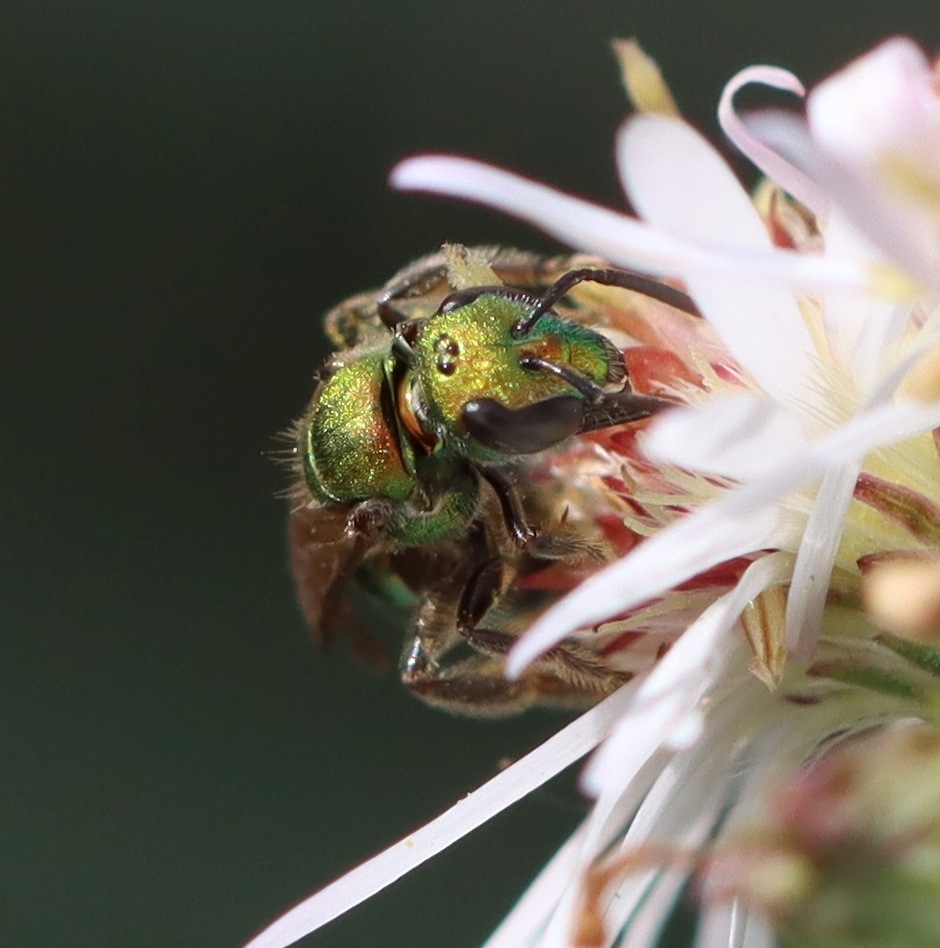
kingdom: Animalia
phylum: Arthropoda
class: Insecta
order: Hymenoptera
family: Halictidae
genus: Augochlora
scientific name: Augochlora pura
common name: Pure green sweat bee
